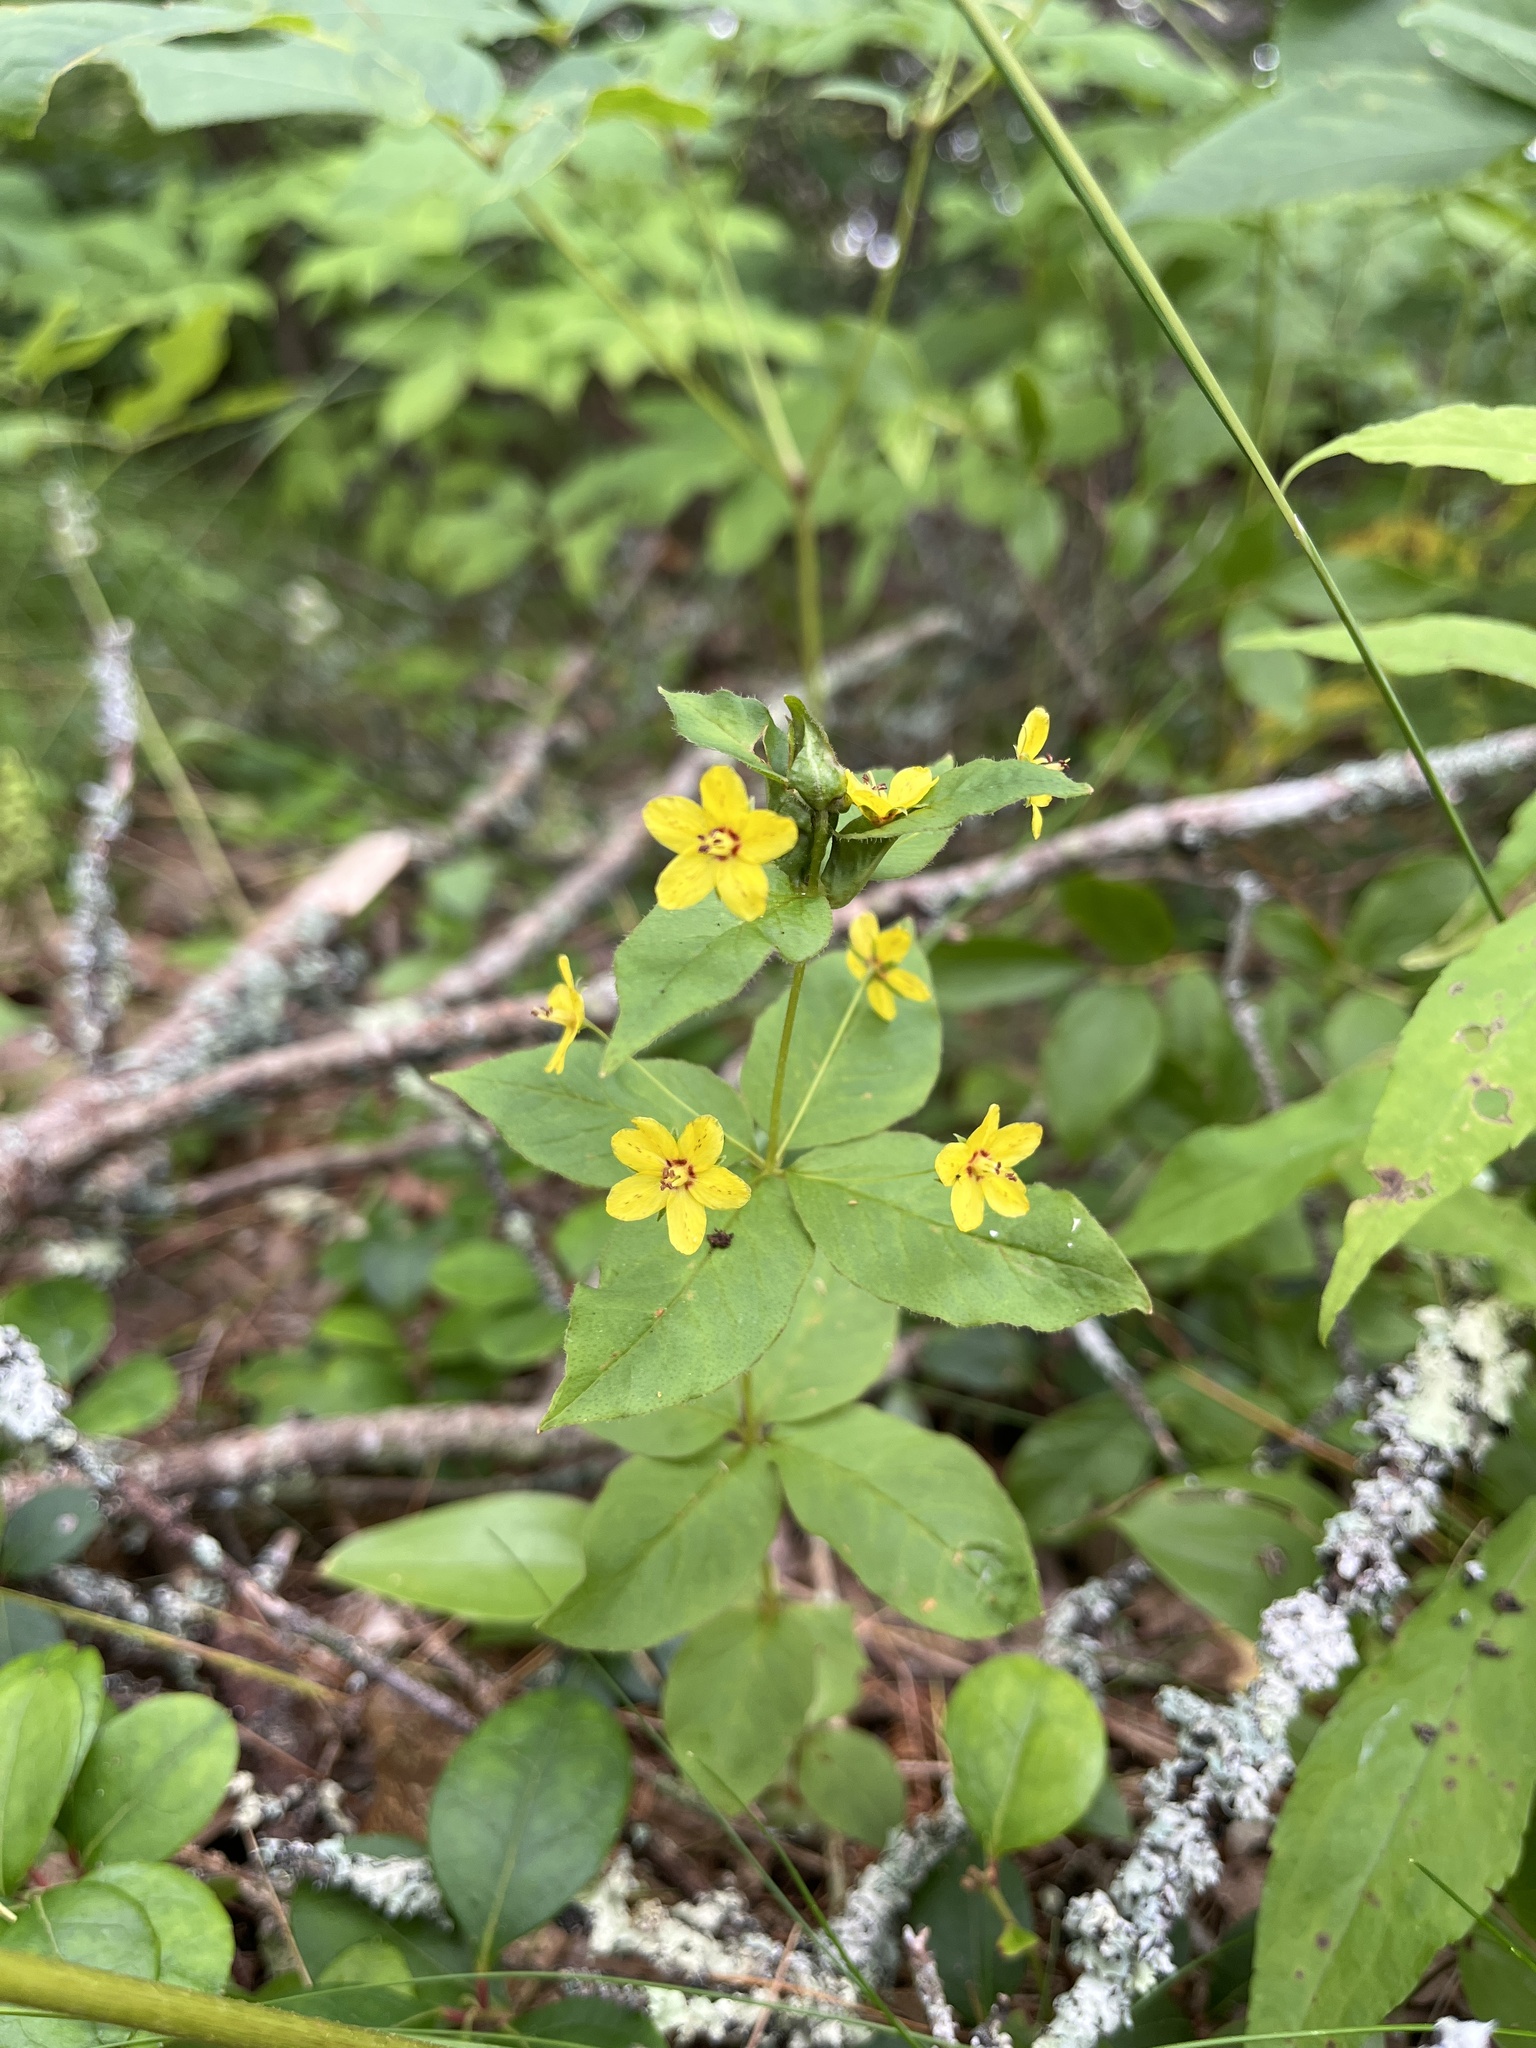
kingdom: Plantae
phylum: Tracheophyta
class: Magnoliopsida
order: Ericales
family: Primulaceae
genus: Lysimachia
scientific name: Lysimachia quadrifolia
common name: Whorled loosestrife
